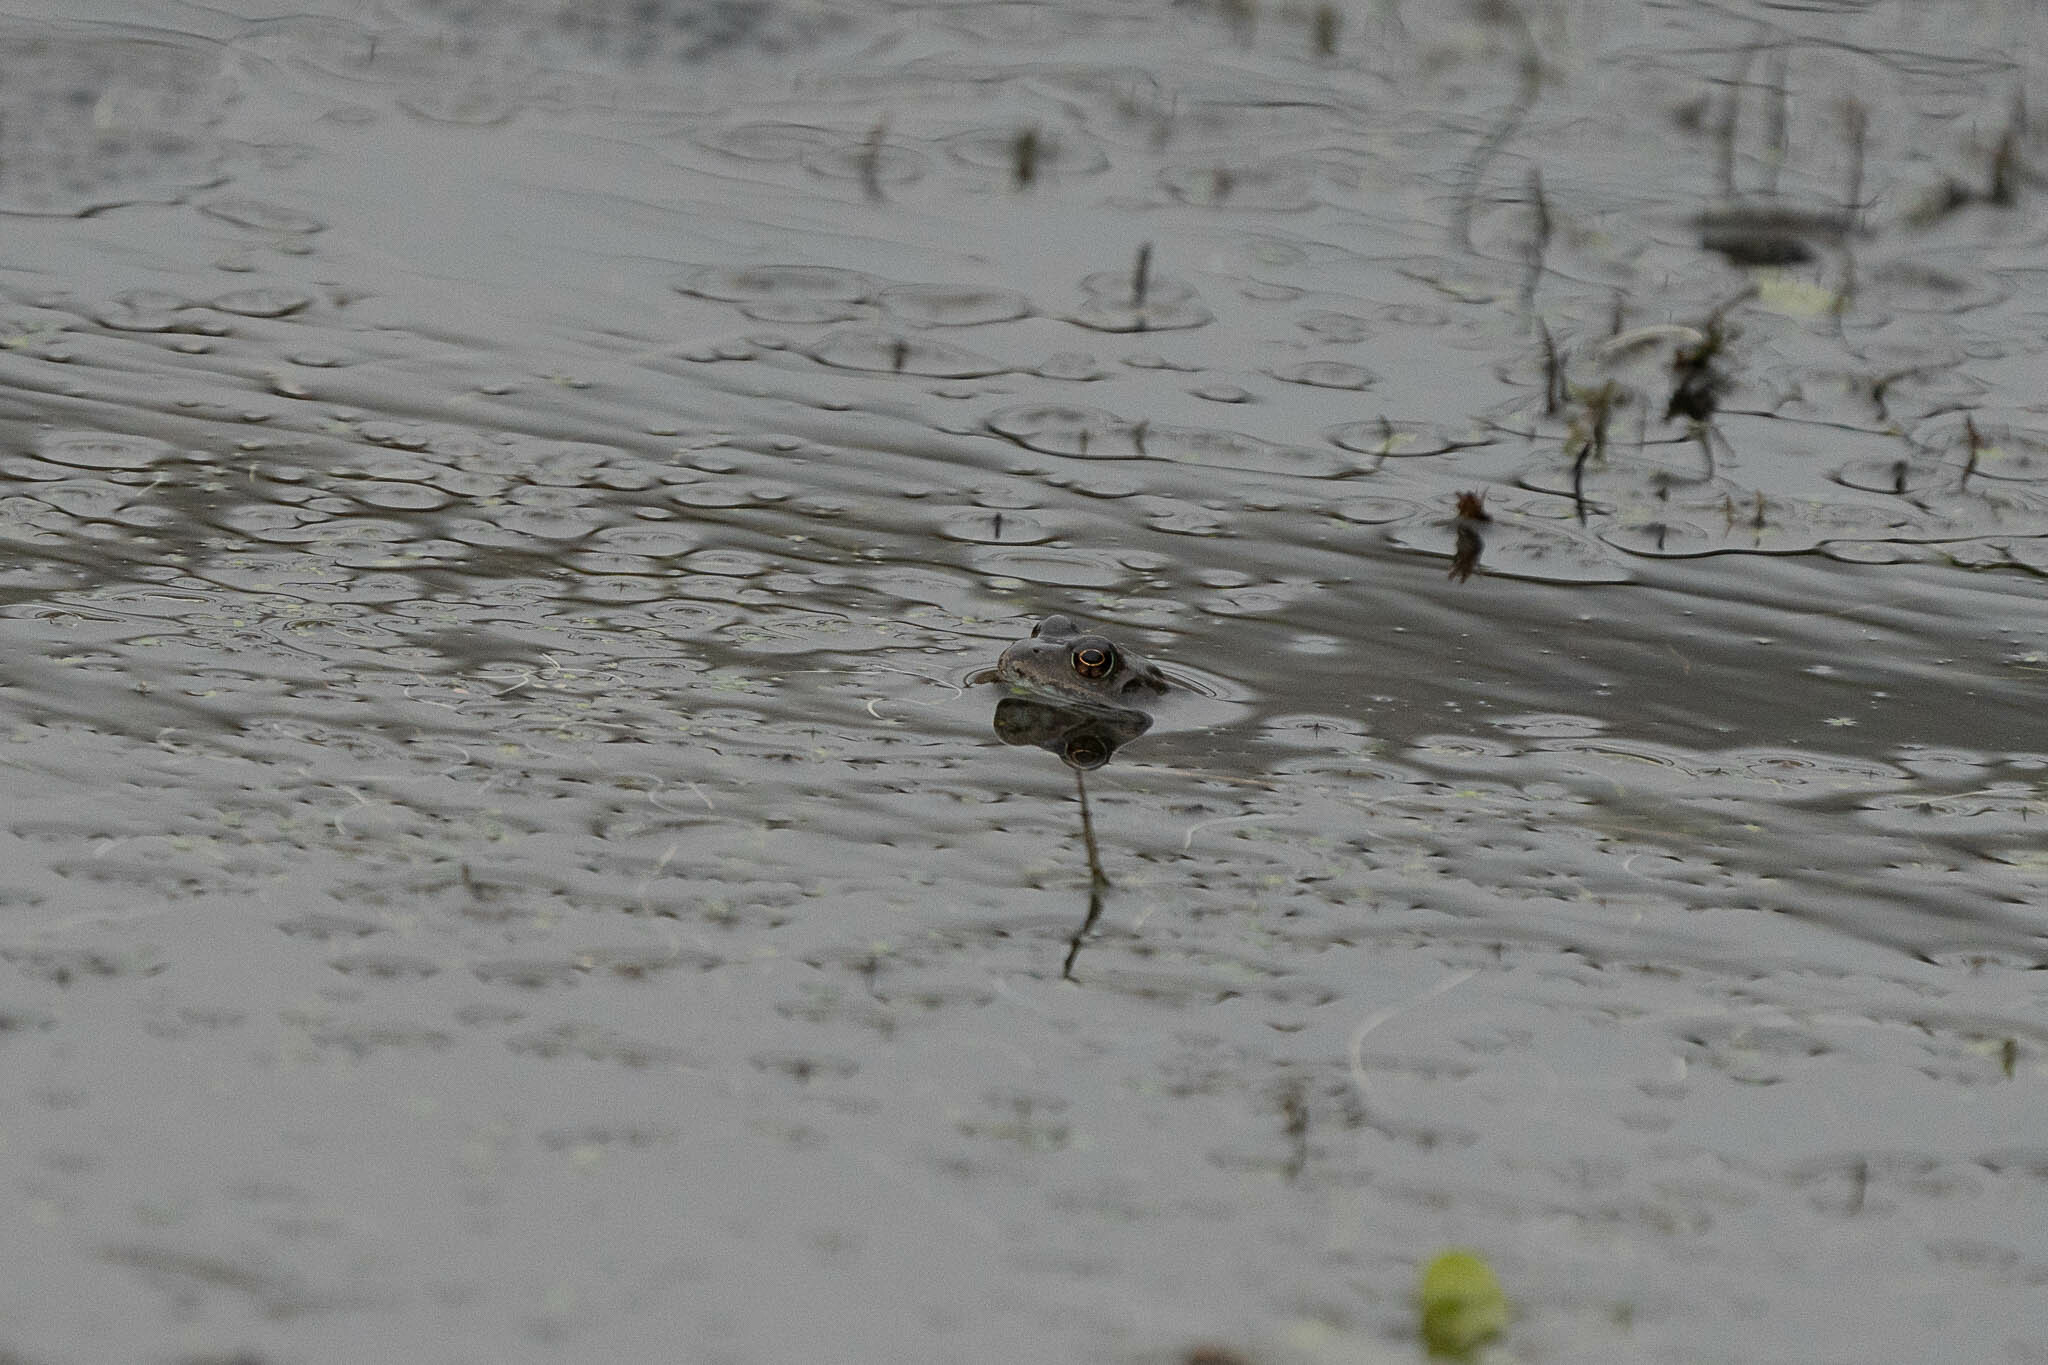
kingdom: Animalia
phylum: Chordata
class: Amphibia
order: Anura
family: Ranidae
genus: Rana
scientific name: Rana temporaria
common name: Common frog
